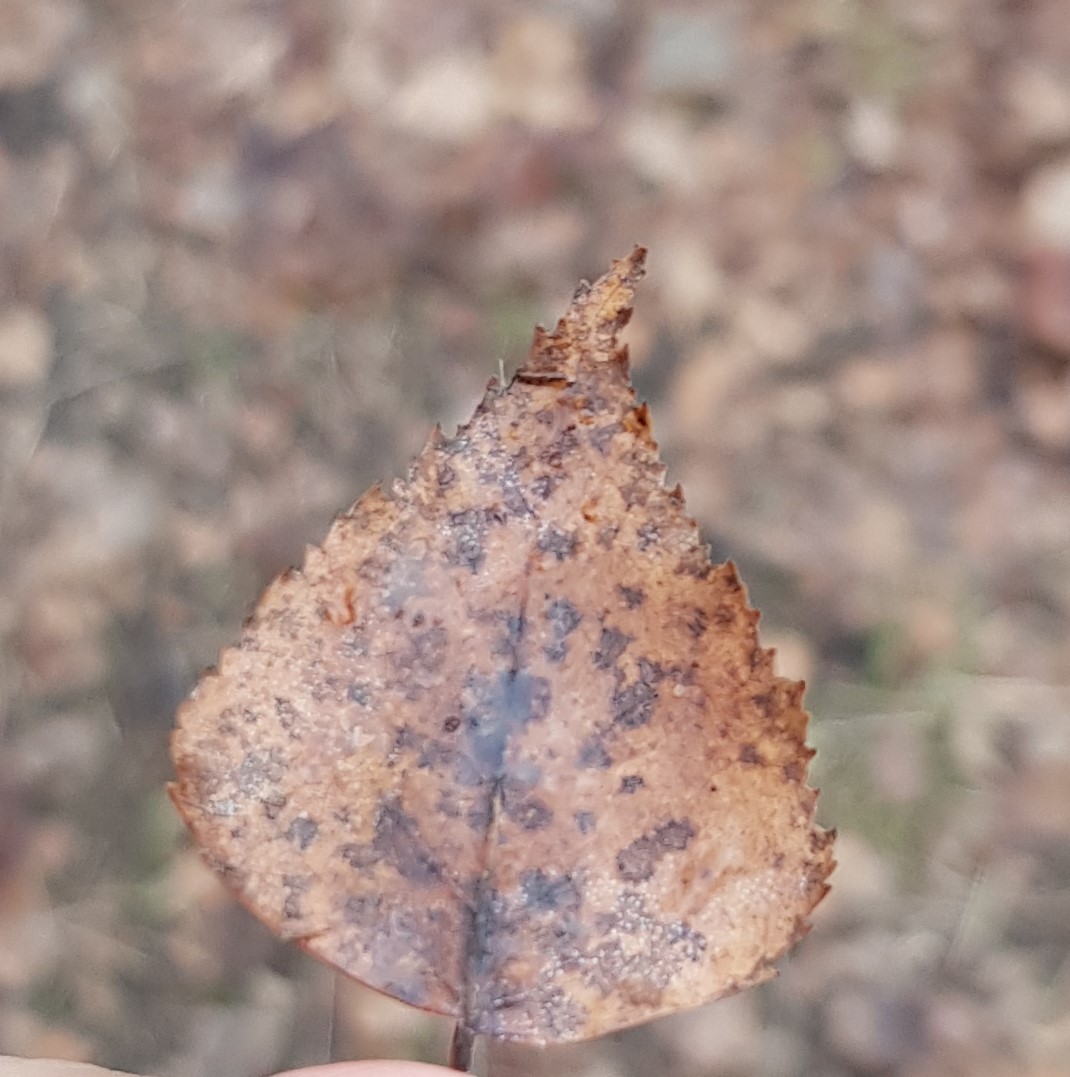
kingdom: Plantae
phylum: Tracheophyta
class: Magnoliopsida
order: Fagales
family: Betulaceae
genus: Betula
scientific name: Betula pendula
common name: Silver birch
